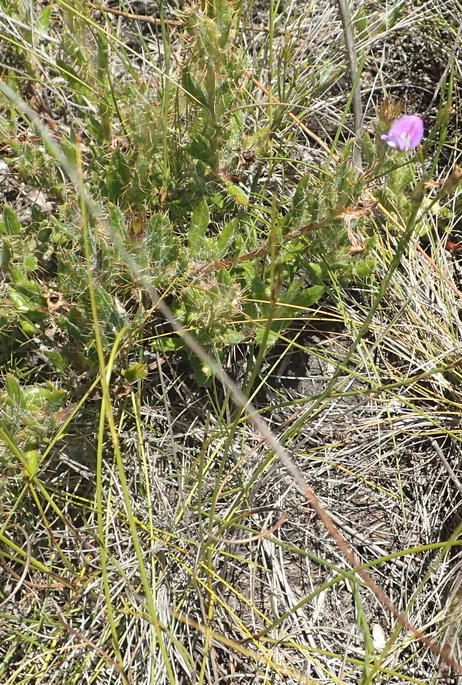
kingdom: Plantae
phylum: Tracheophyta
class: Magnoliopsida
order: Fabales
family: Fabaceae
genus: Psoralea
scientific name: Psoralea trullata
